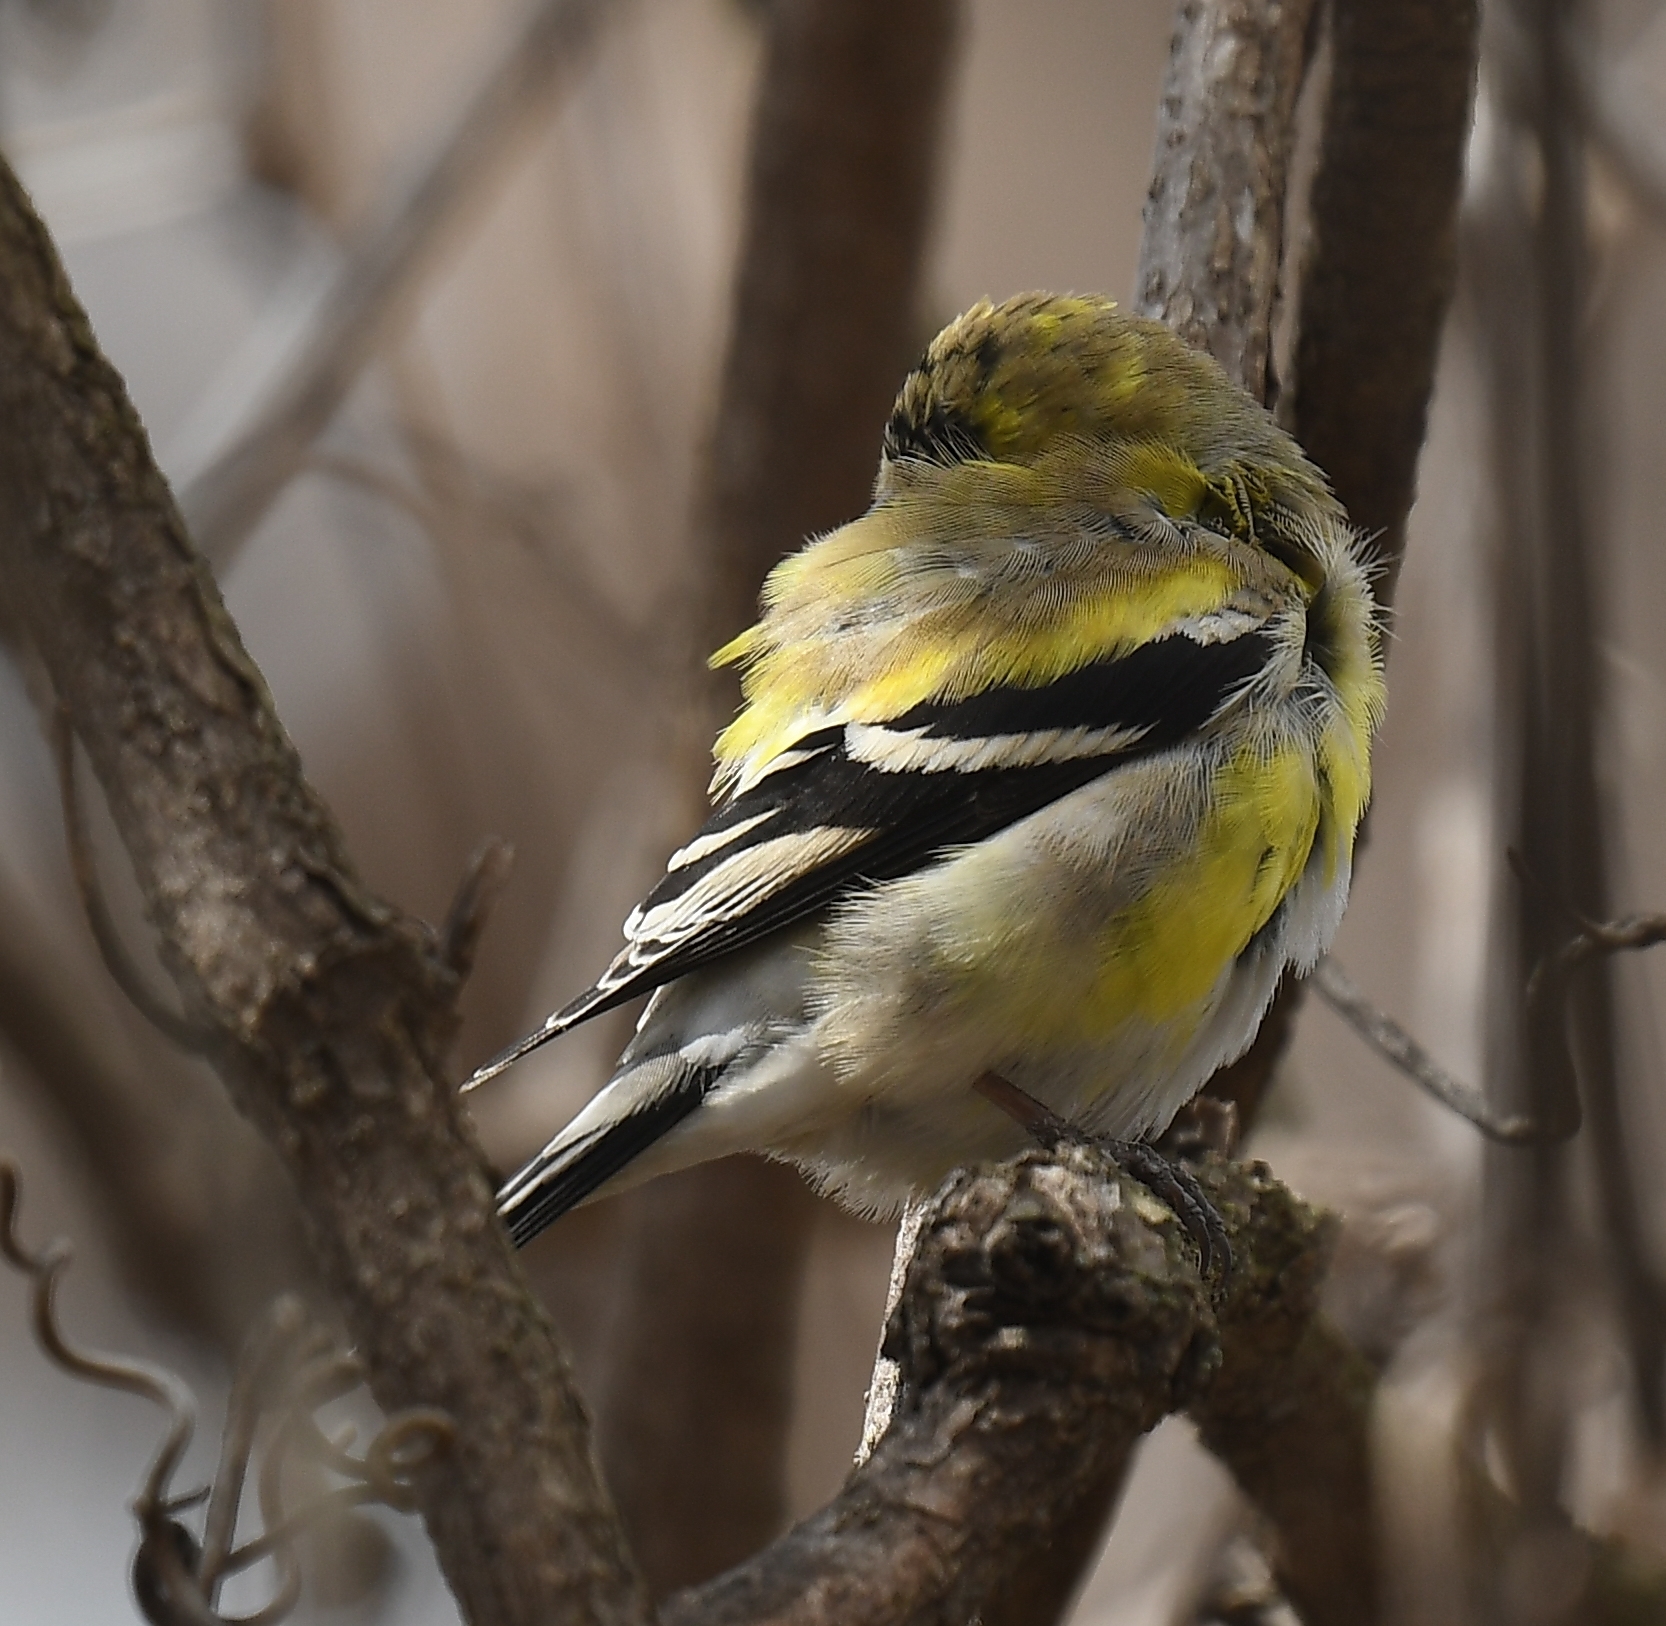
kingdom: Animalia
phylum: Chordata
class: Aves
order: Passeriformes
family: Fringillidae
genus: Spinus
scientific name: Spinus tristis
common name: American goldfinch
